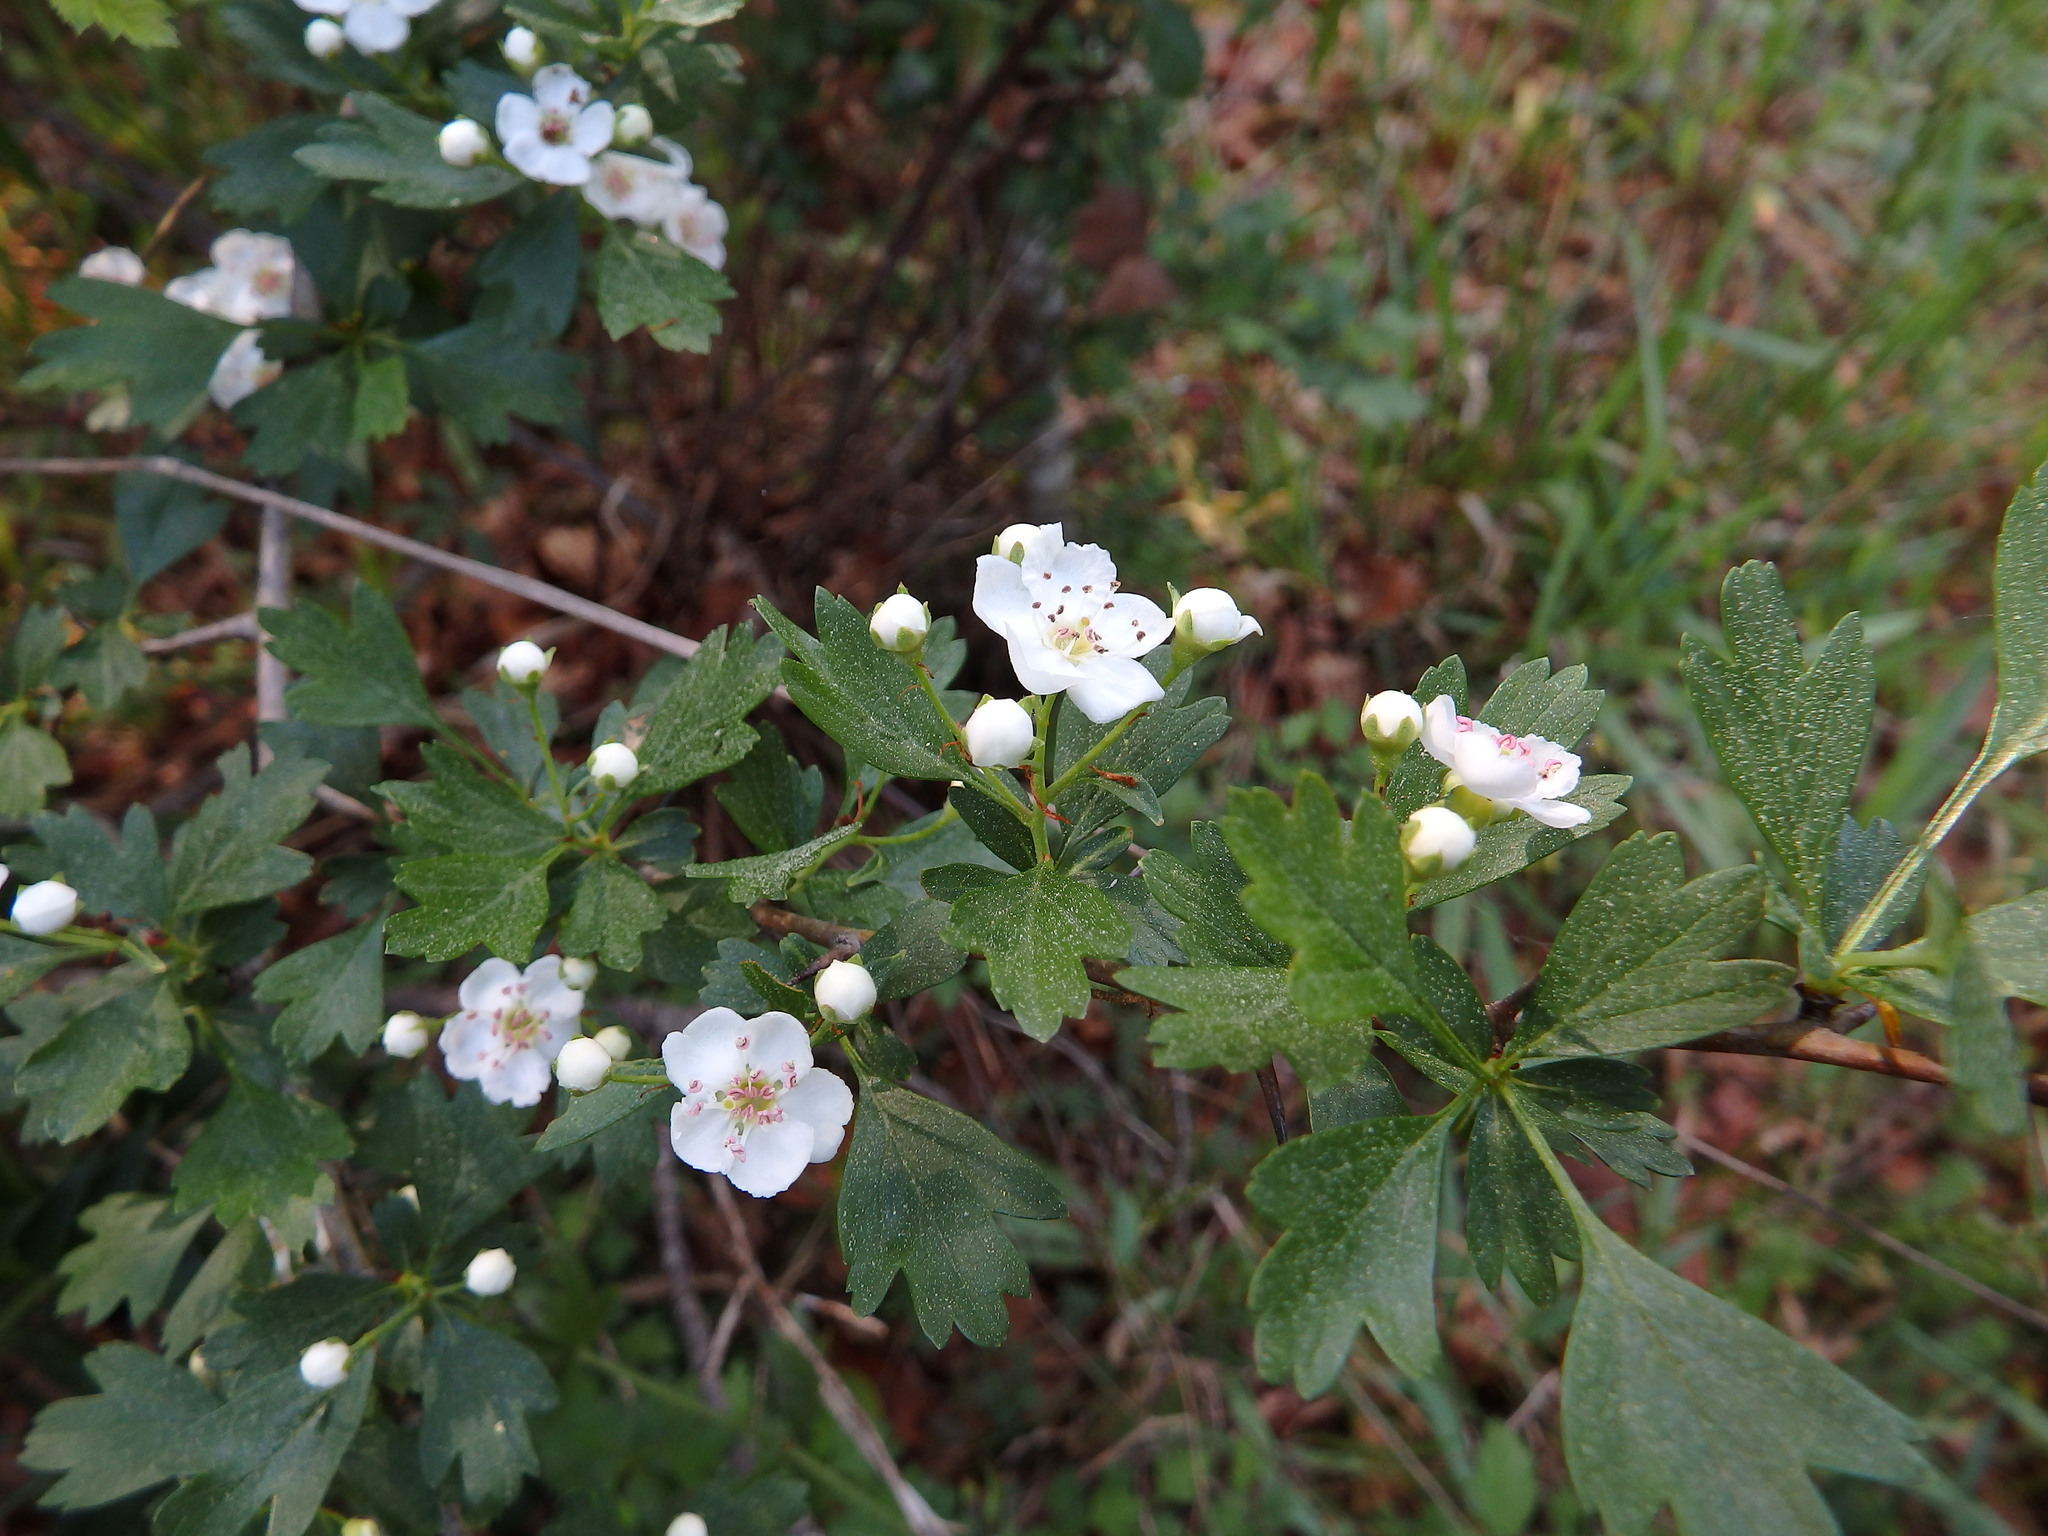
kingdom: Plantae
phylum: Tracheophyta
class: Magnoliopsida
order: Rosales
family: Rosaceae
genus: Crataegus
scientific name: Crataegus monogyna
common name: Hawthorn
